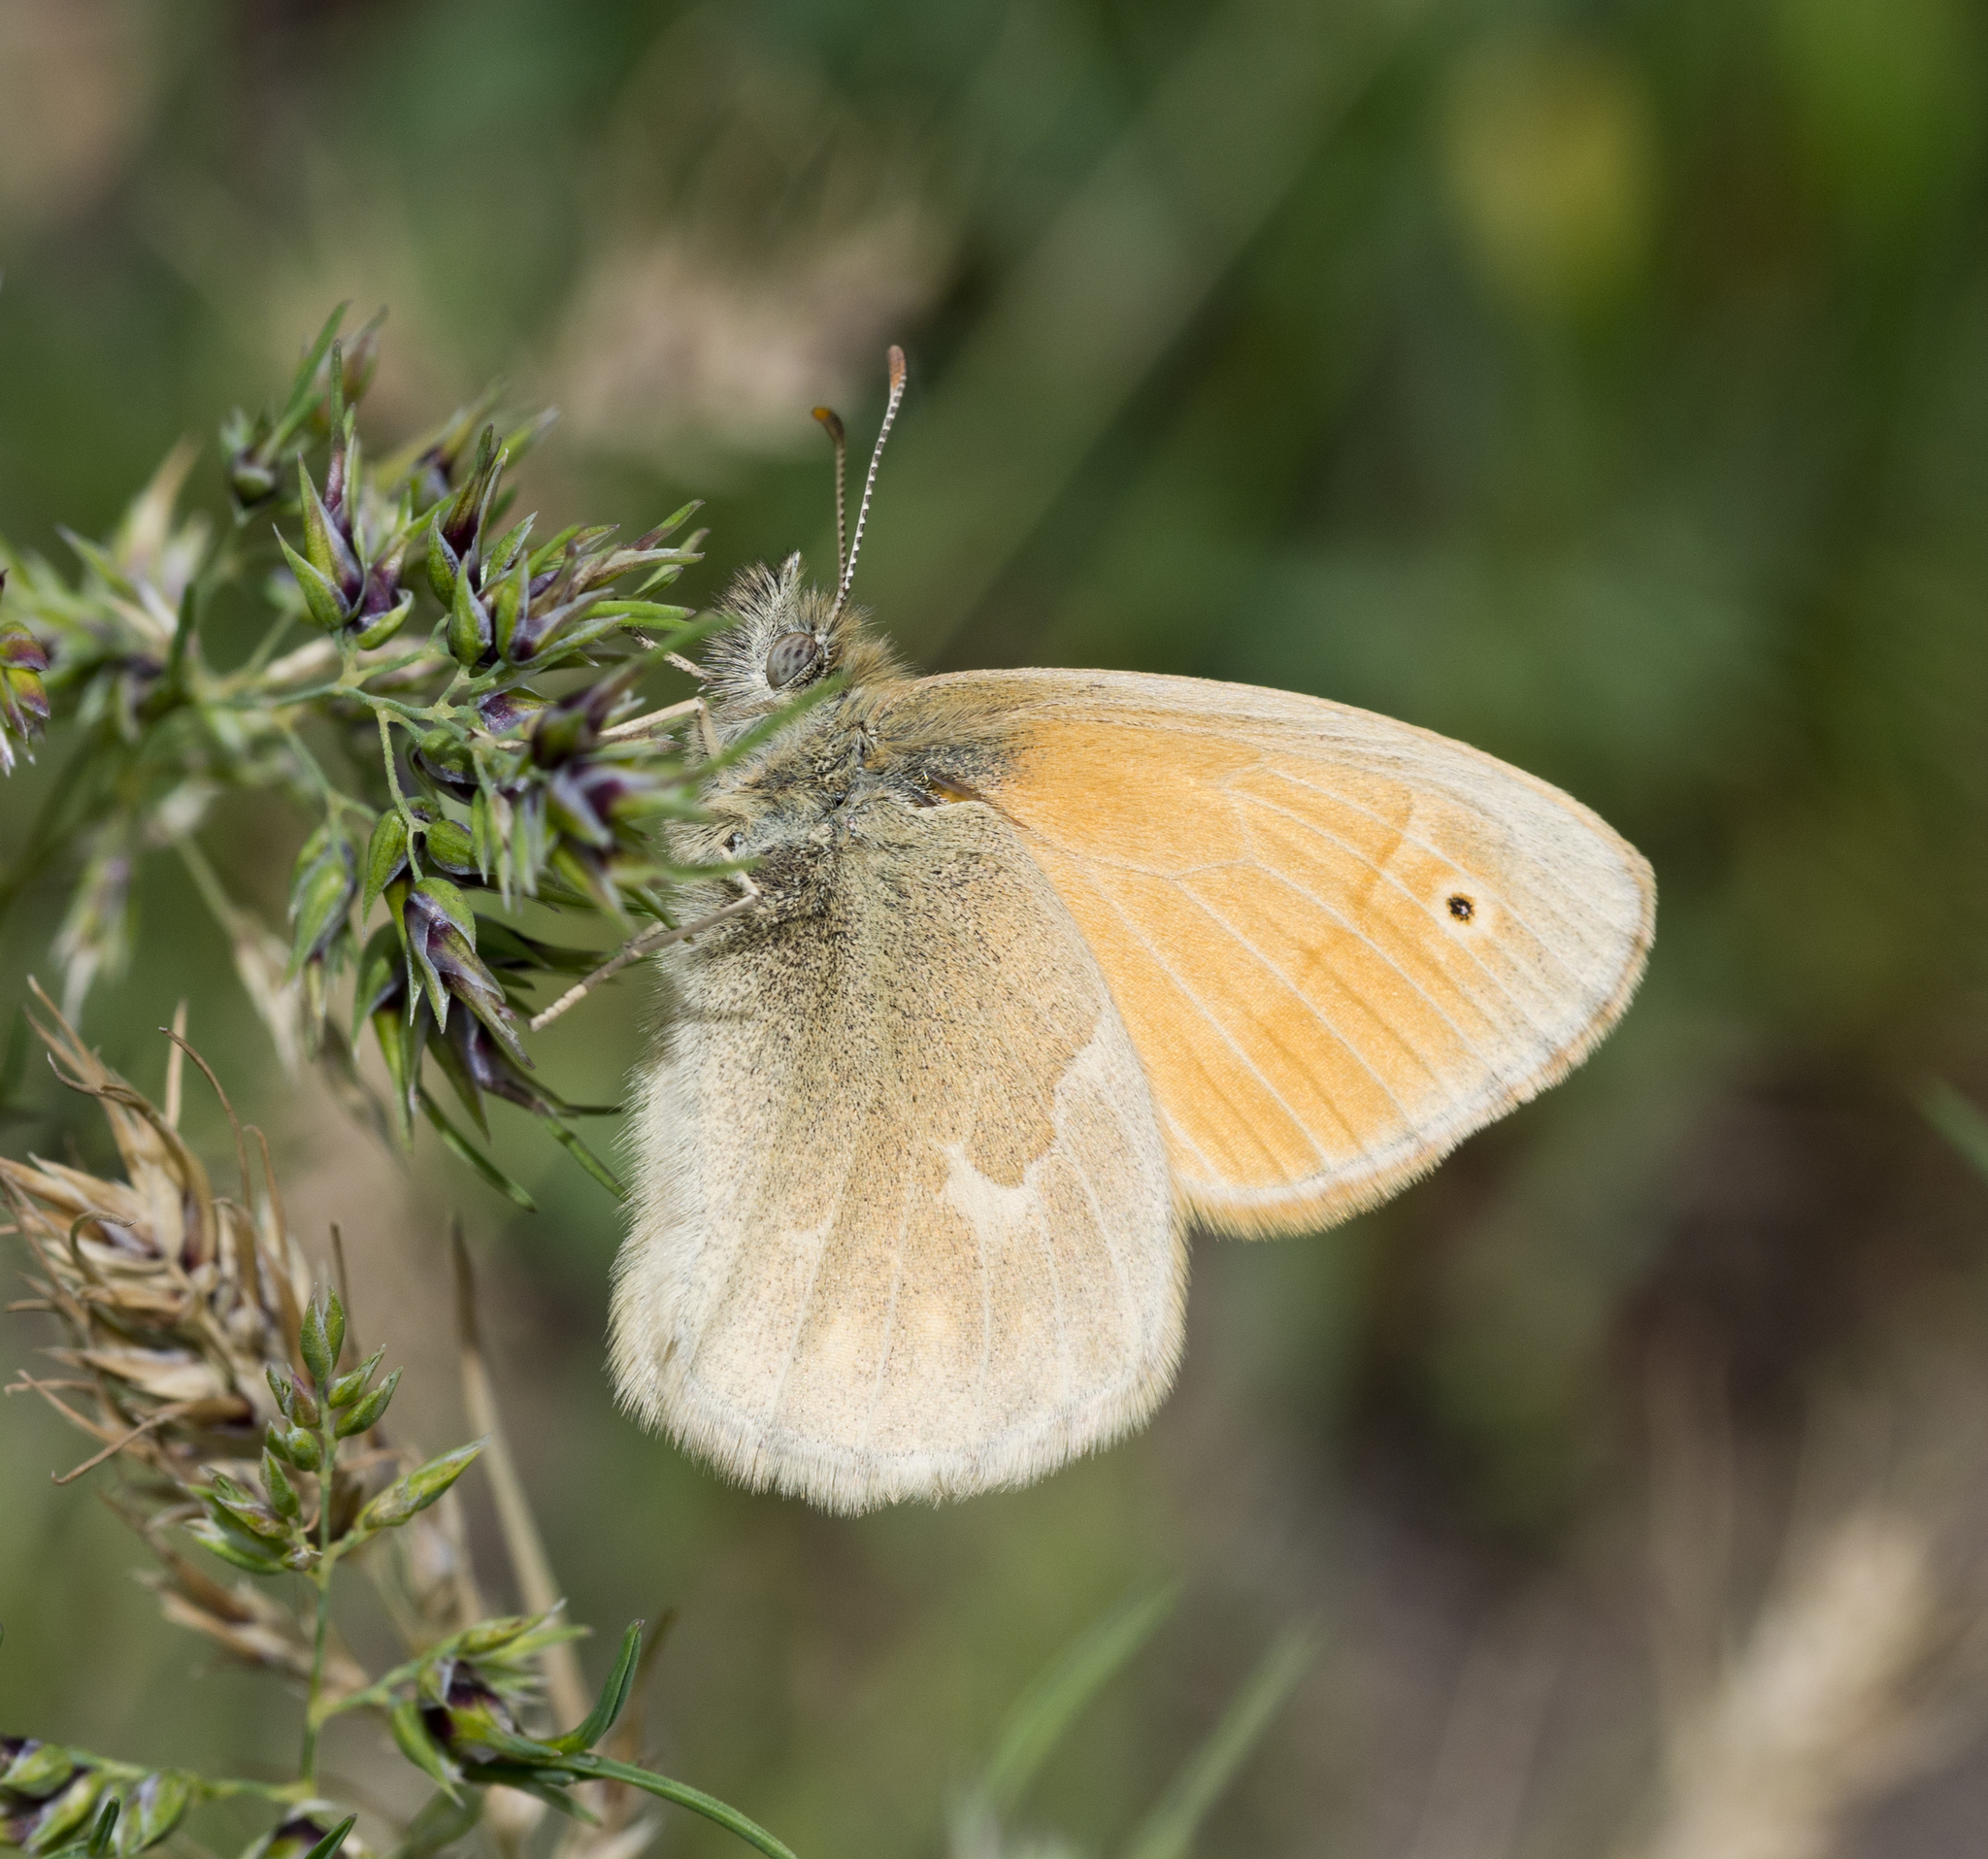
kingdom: Animalia
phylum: Arthropoda
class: Insecta
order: Lepidoptera
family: Nymphalidae
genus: Coenonympha
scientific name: Coenonympha california
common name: Common ringlet
